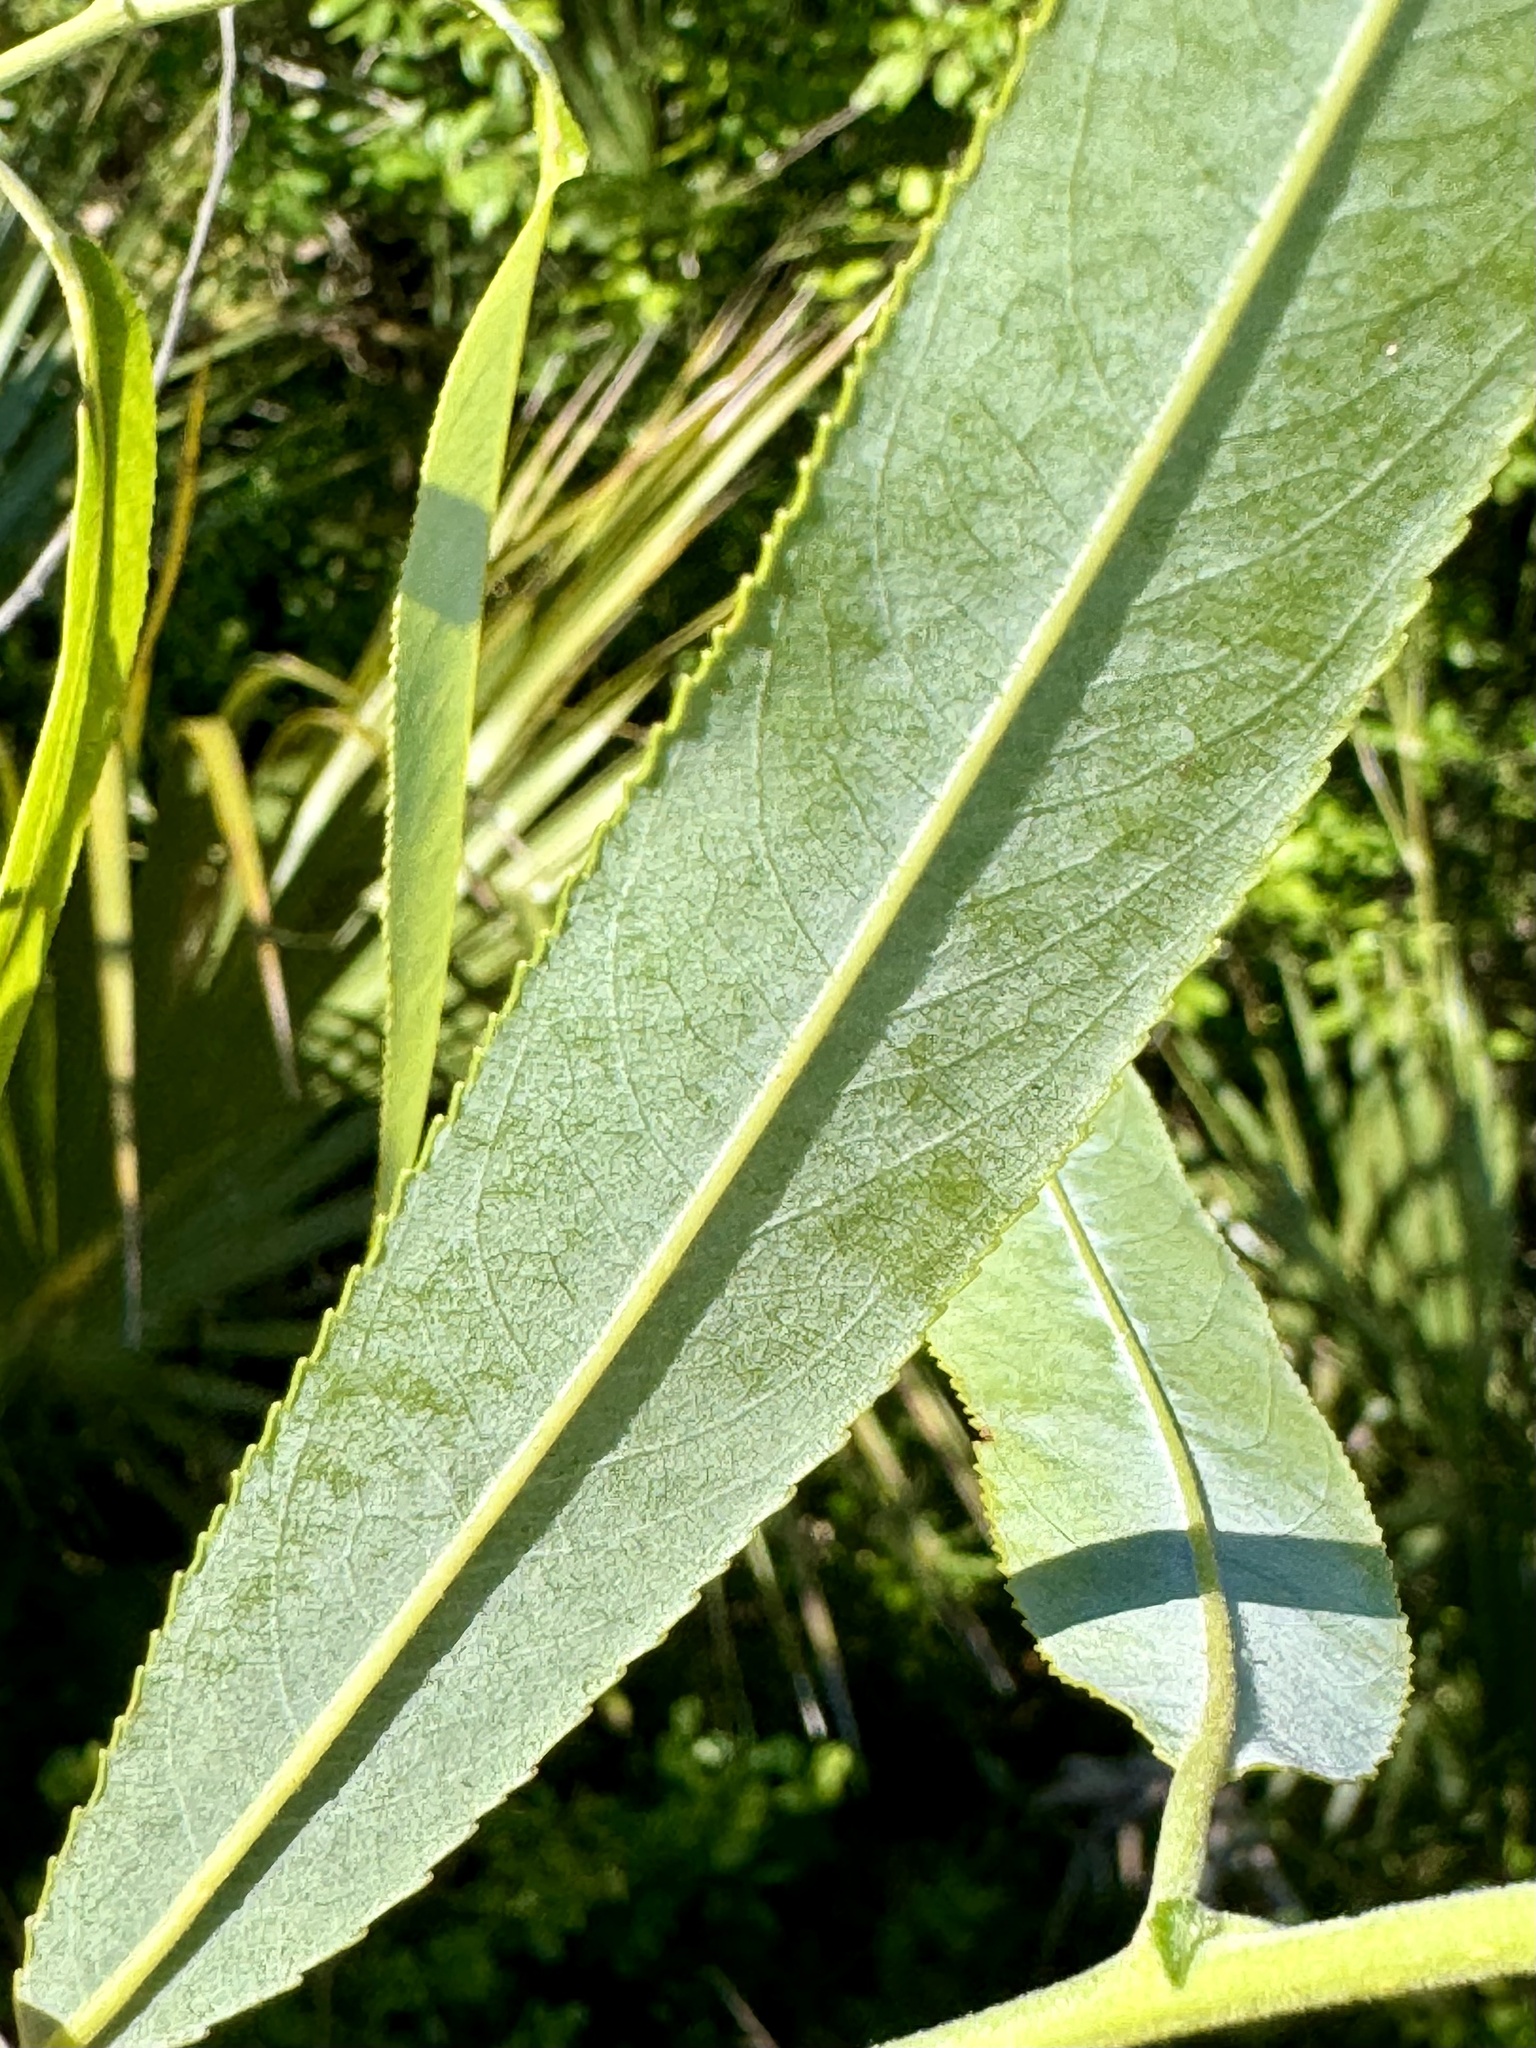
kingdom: Plantae
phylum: Tracheophyta
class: Magnoliopsida
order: Malpighiales
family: Salicaceae
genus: Salix
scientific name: Salix caroliniana
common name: Carolina willow
